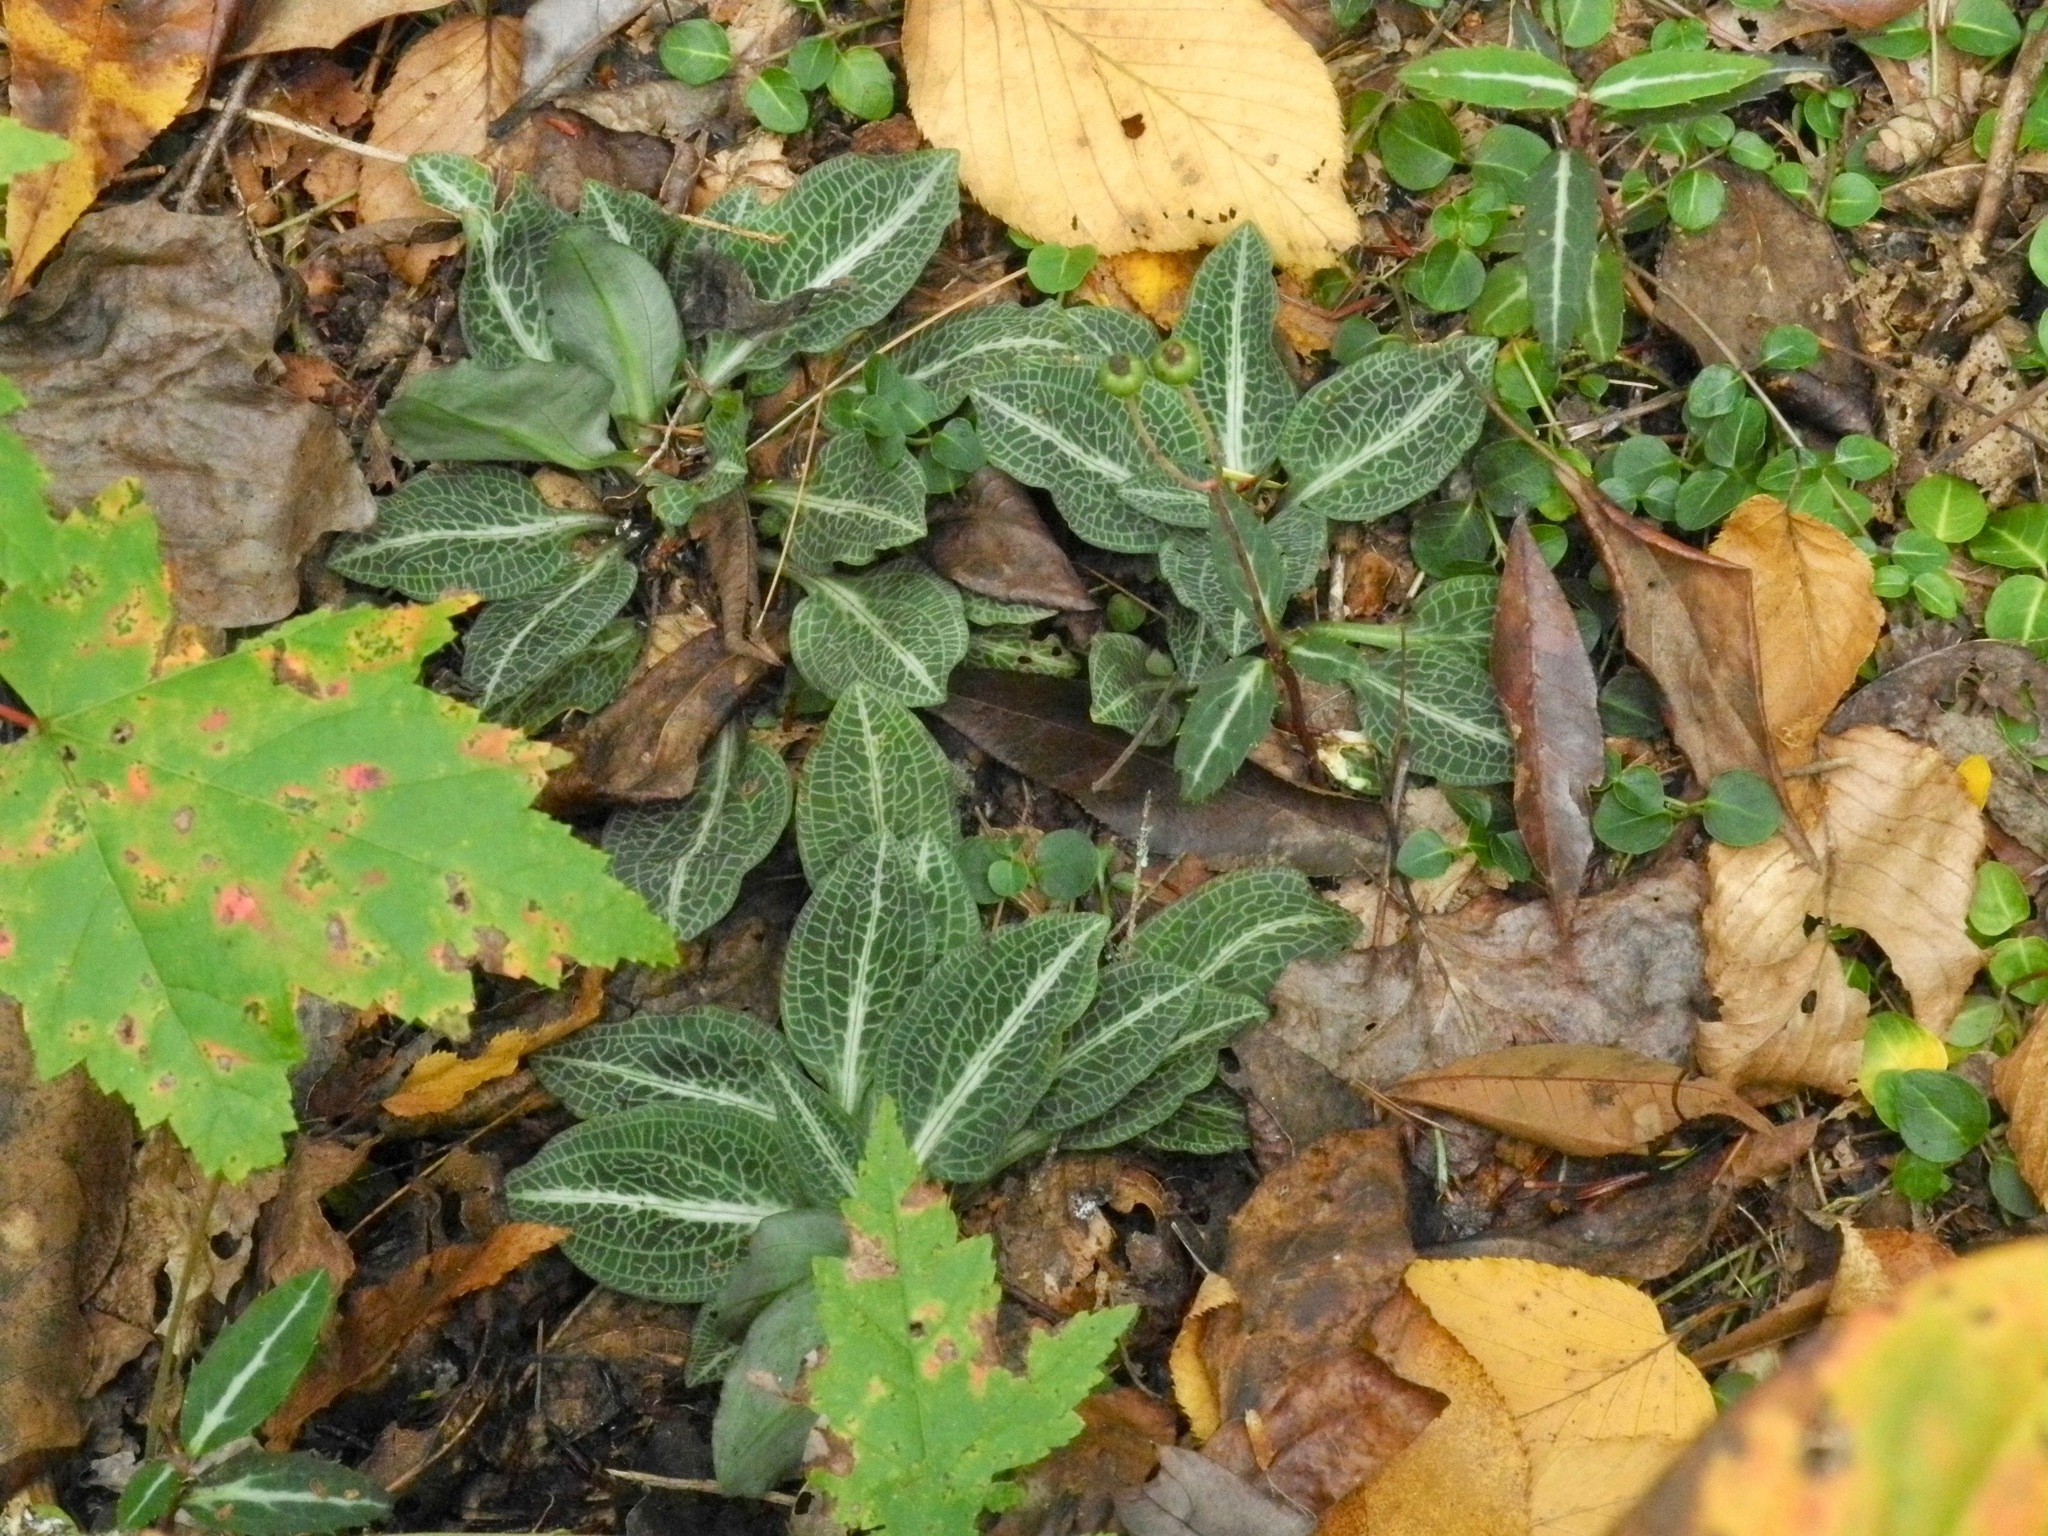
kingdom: Plantae
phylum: Tracheophyta
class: Liliopsida
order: Asparagales
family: Orchidaceae
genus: Goodyera
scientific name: Goodyera pubescens
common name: Downy rattlesnake-plantain
